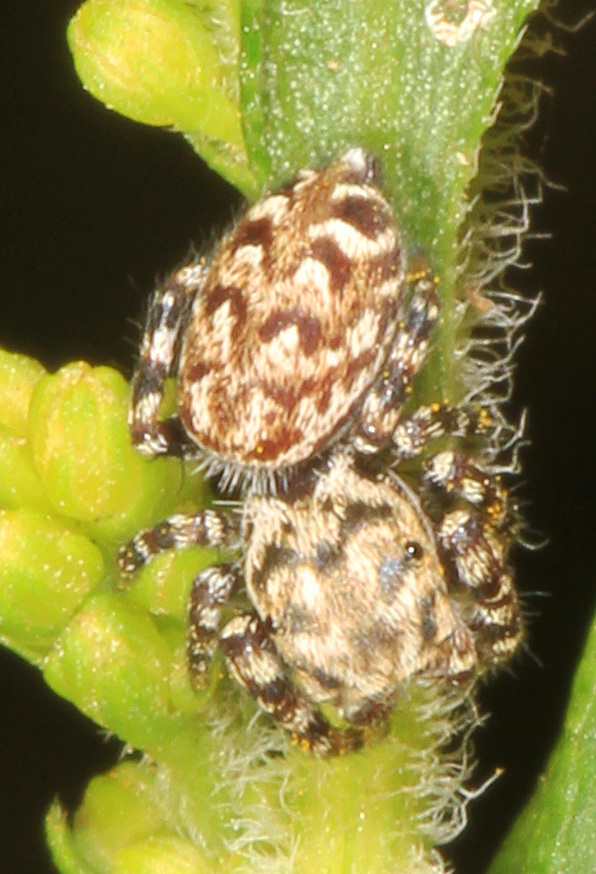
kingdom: Animalia
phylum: Arthropoda
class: Arachnida
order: Araneae
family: Salticidae
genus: Pelegrina
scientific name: Pelegrina galathea
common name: Jumping spiders
